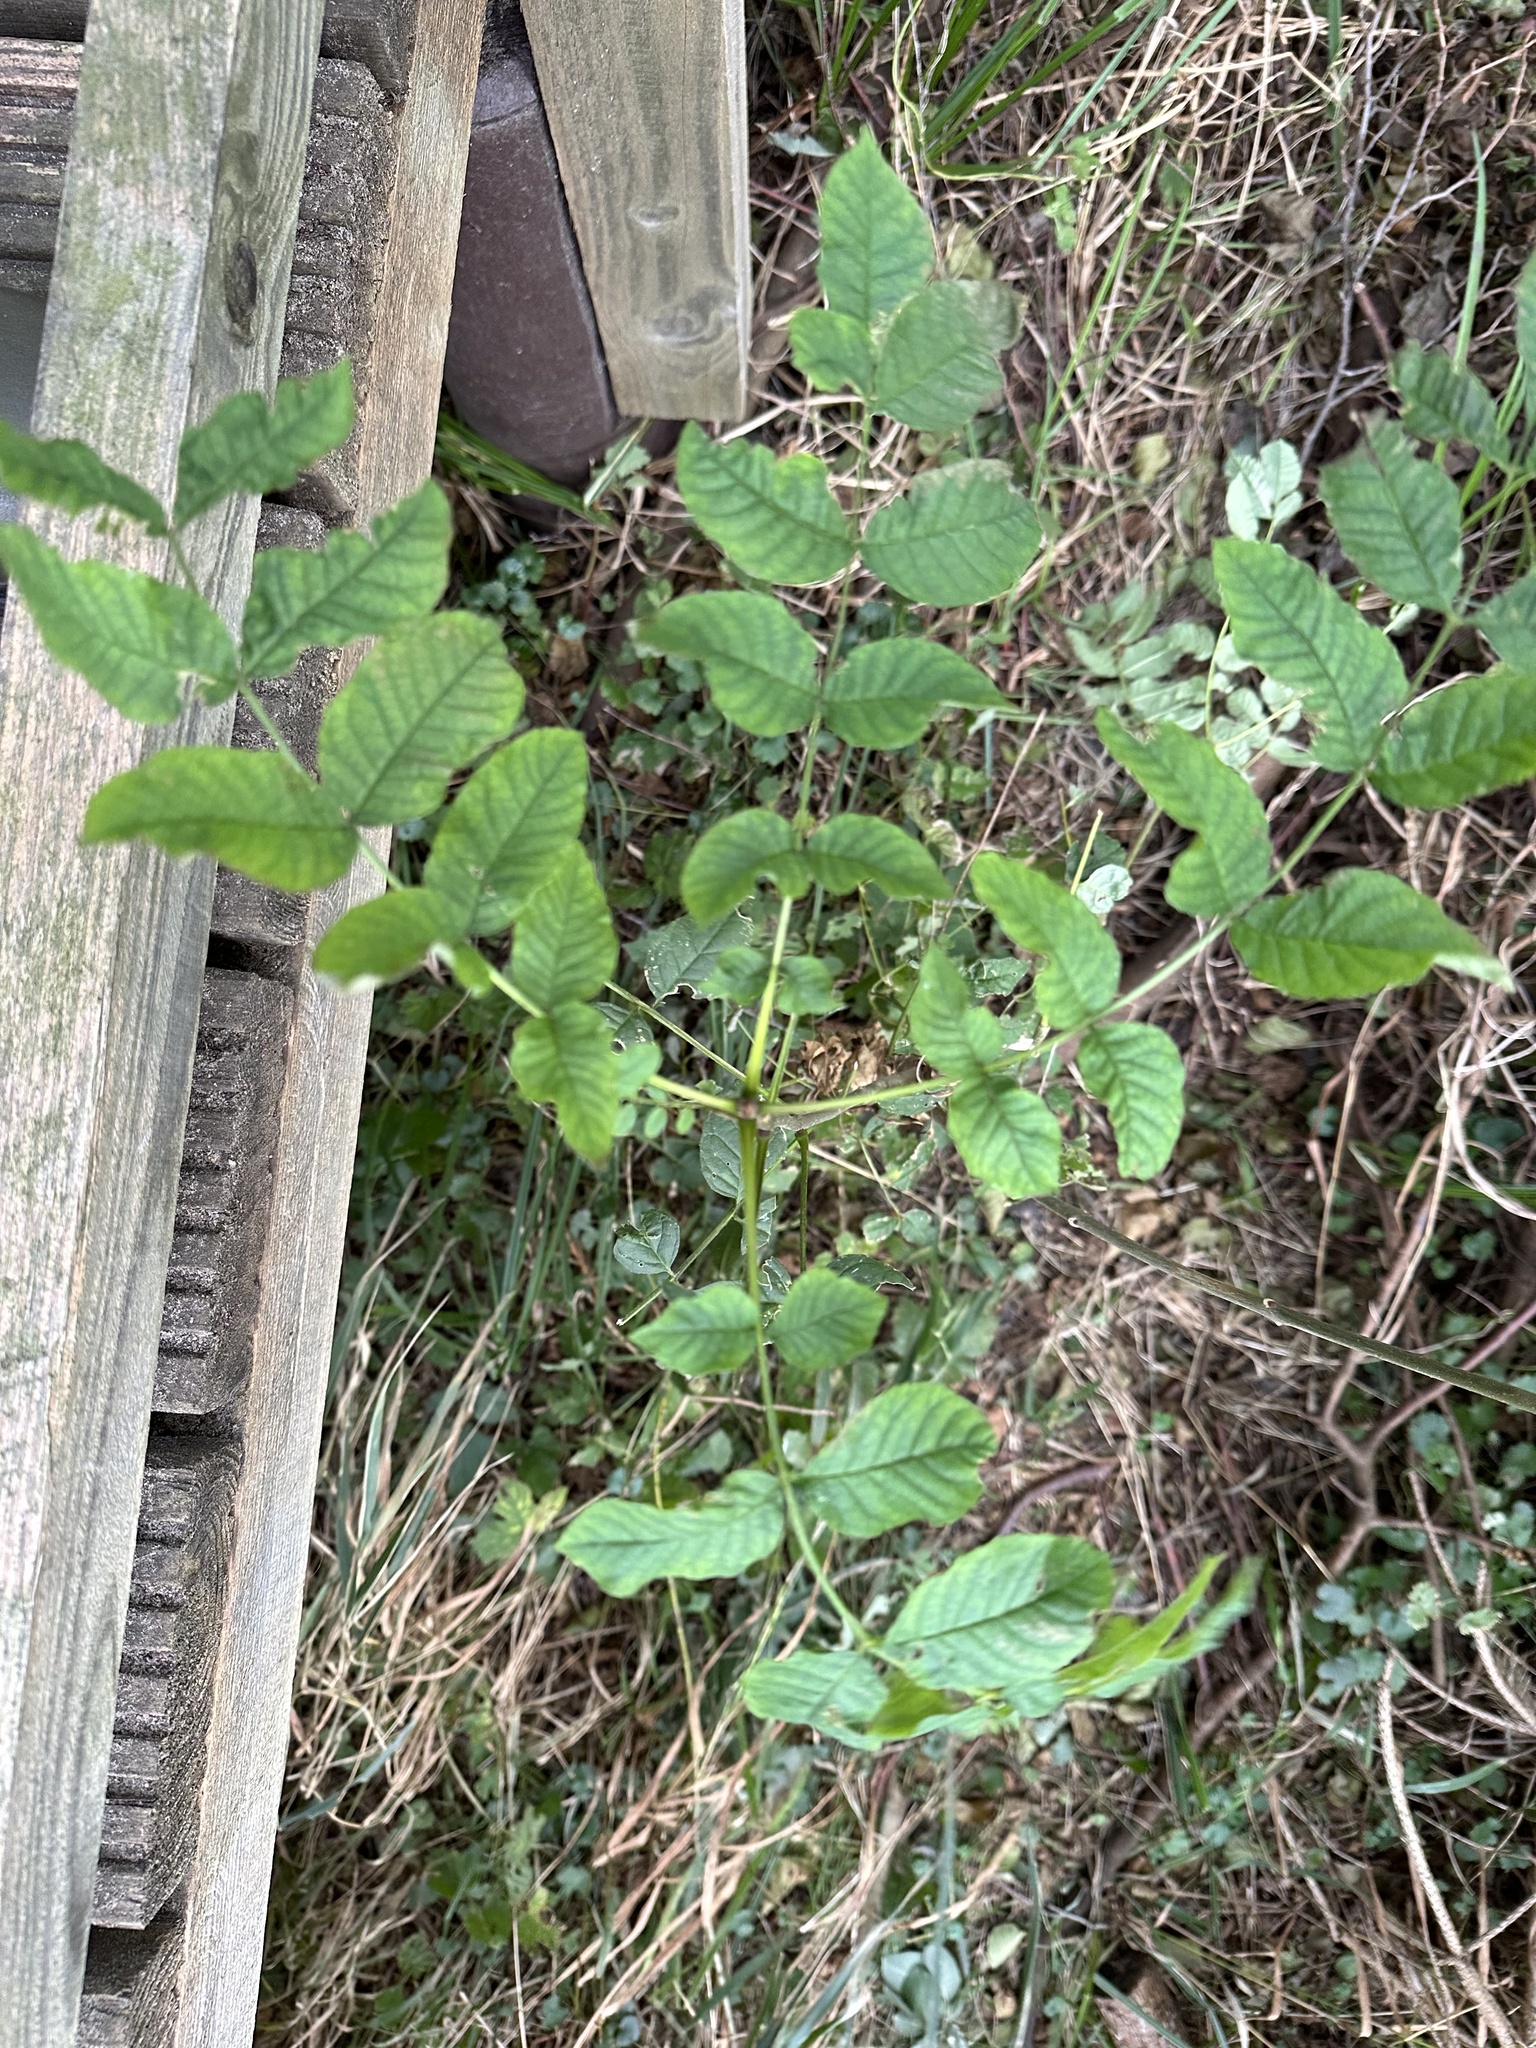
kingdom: Plantae
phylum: Tracheophyta
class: Magnoliopsida
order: Lamiales
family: Oleaceae
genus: Fraxinus
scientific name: Fraxinus excelsior
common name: European ash
